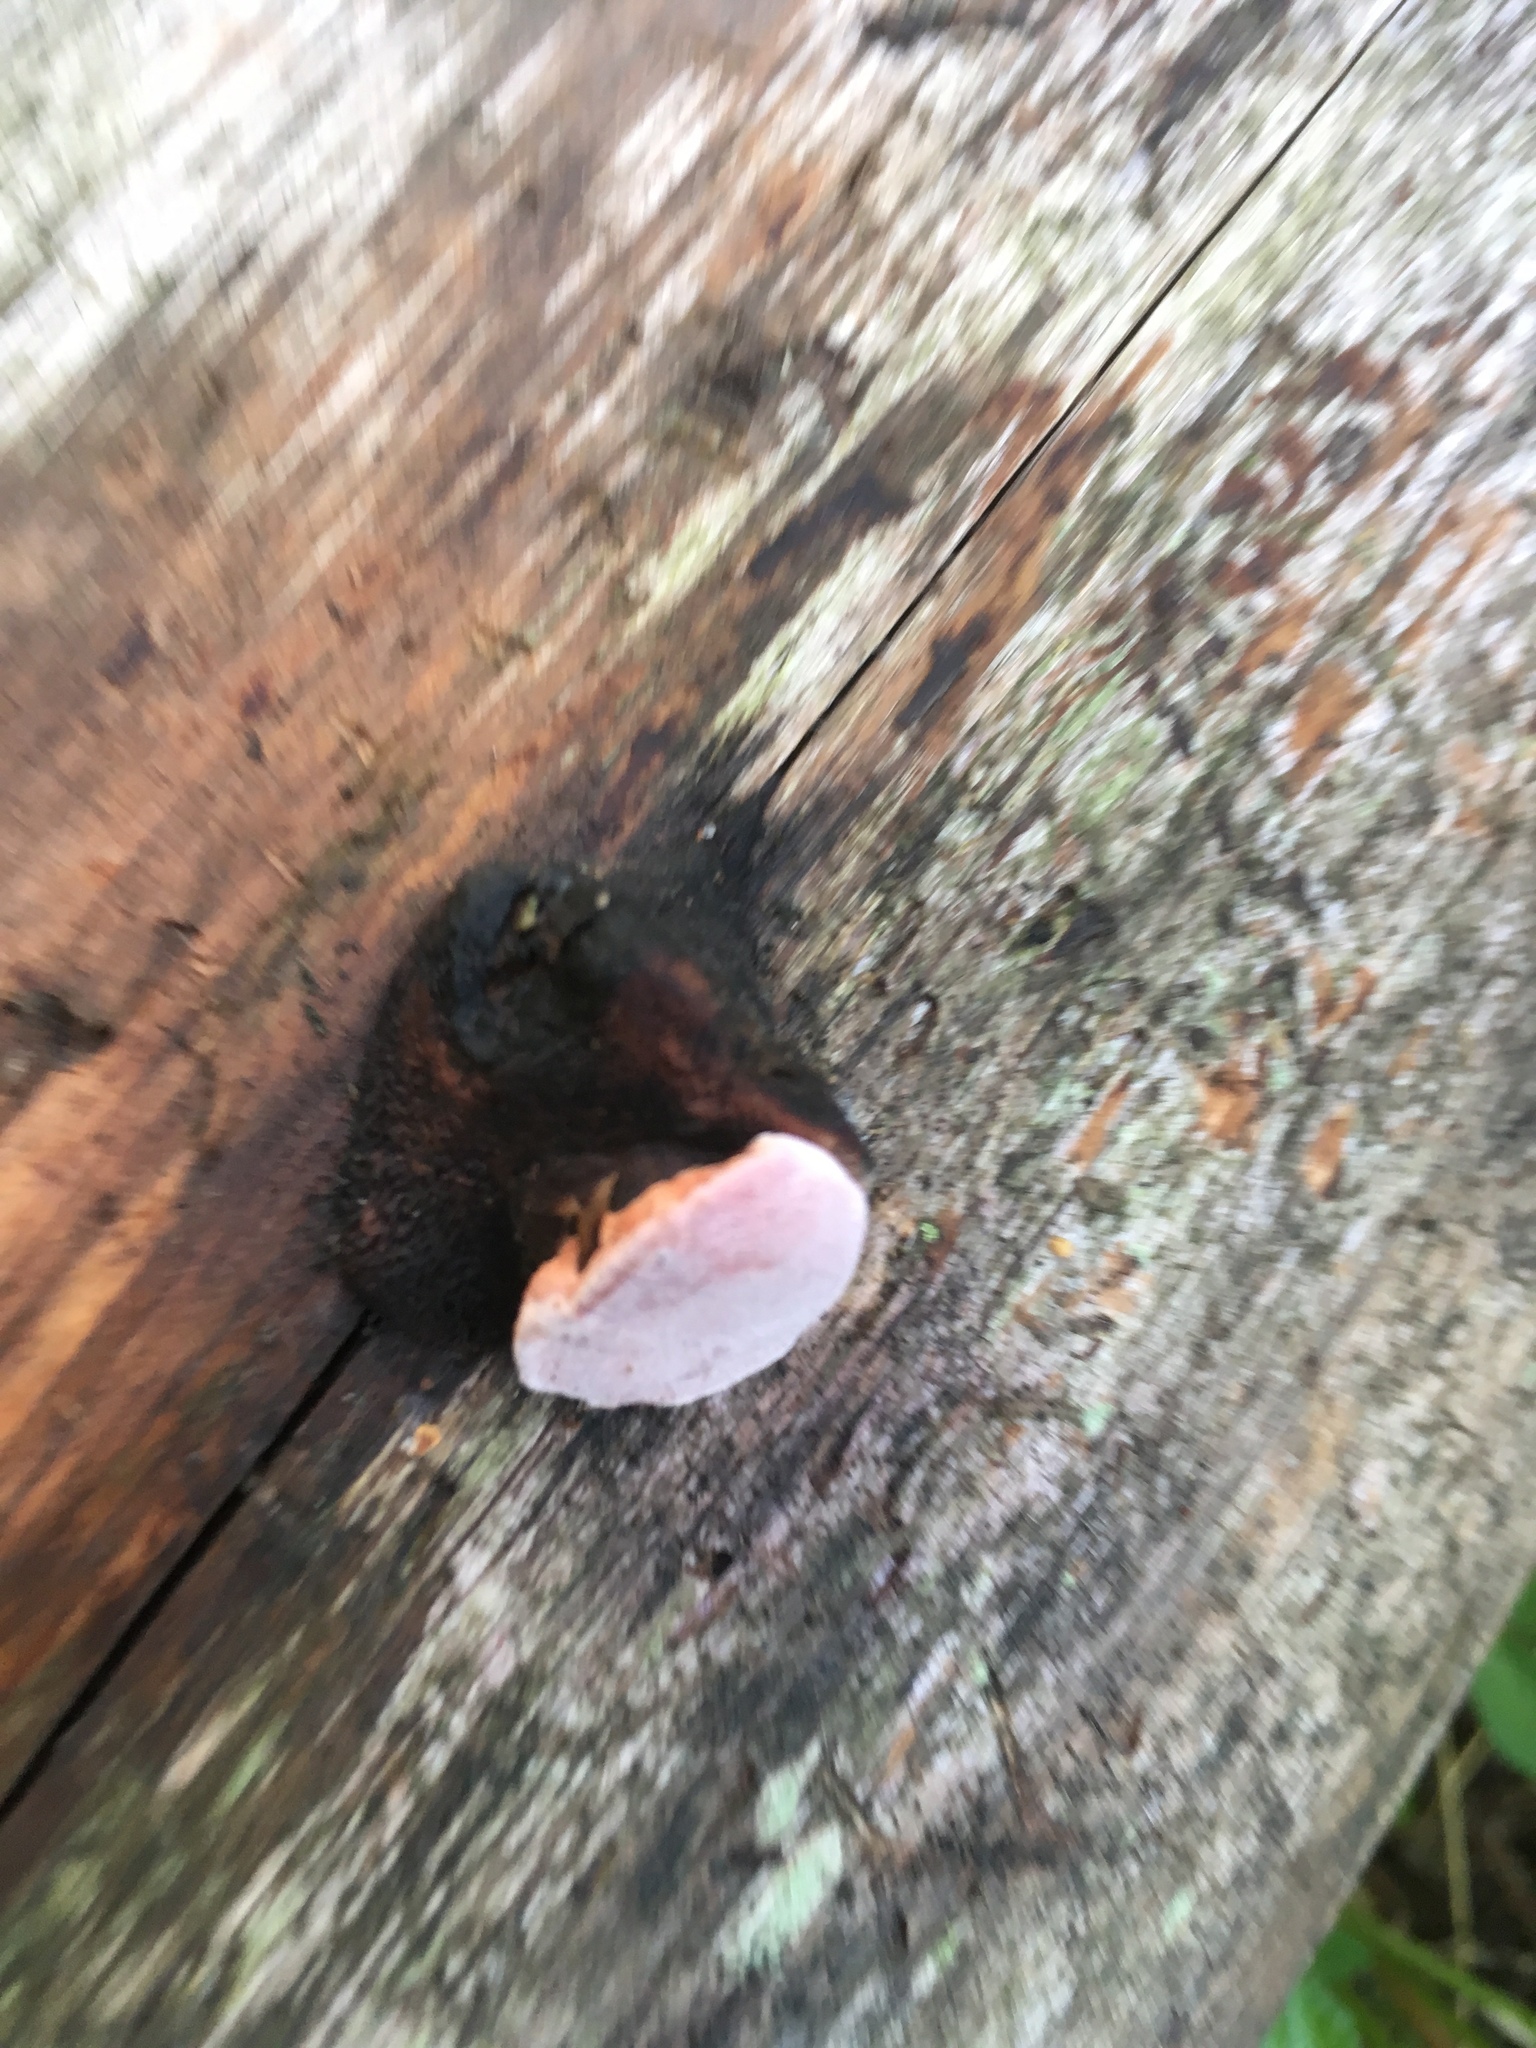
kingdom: Fungi
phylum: Basidiomycota
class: Agaricomycetes
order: Polyporales
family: Fomitopsidaceae
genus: Rhodofomes
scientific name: Rhodofomes roseus
